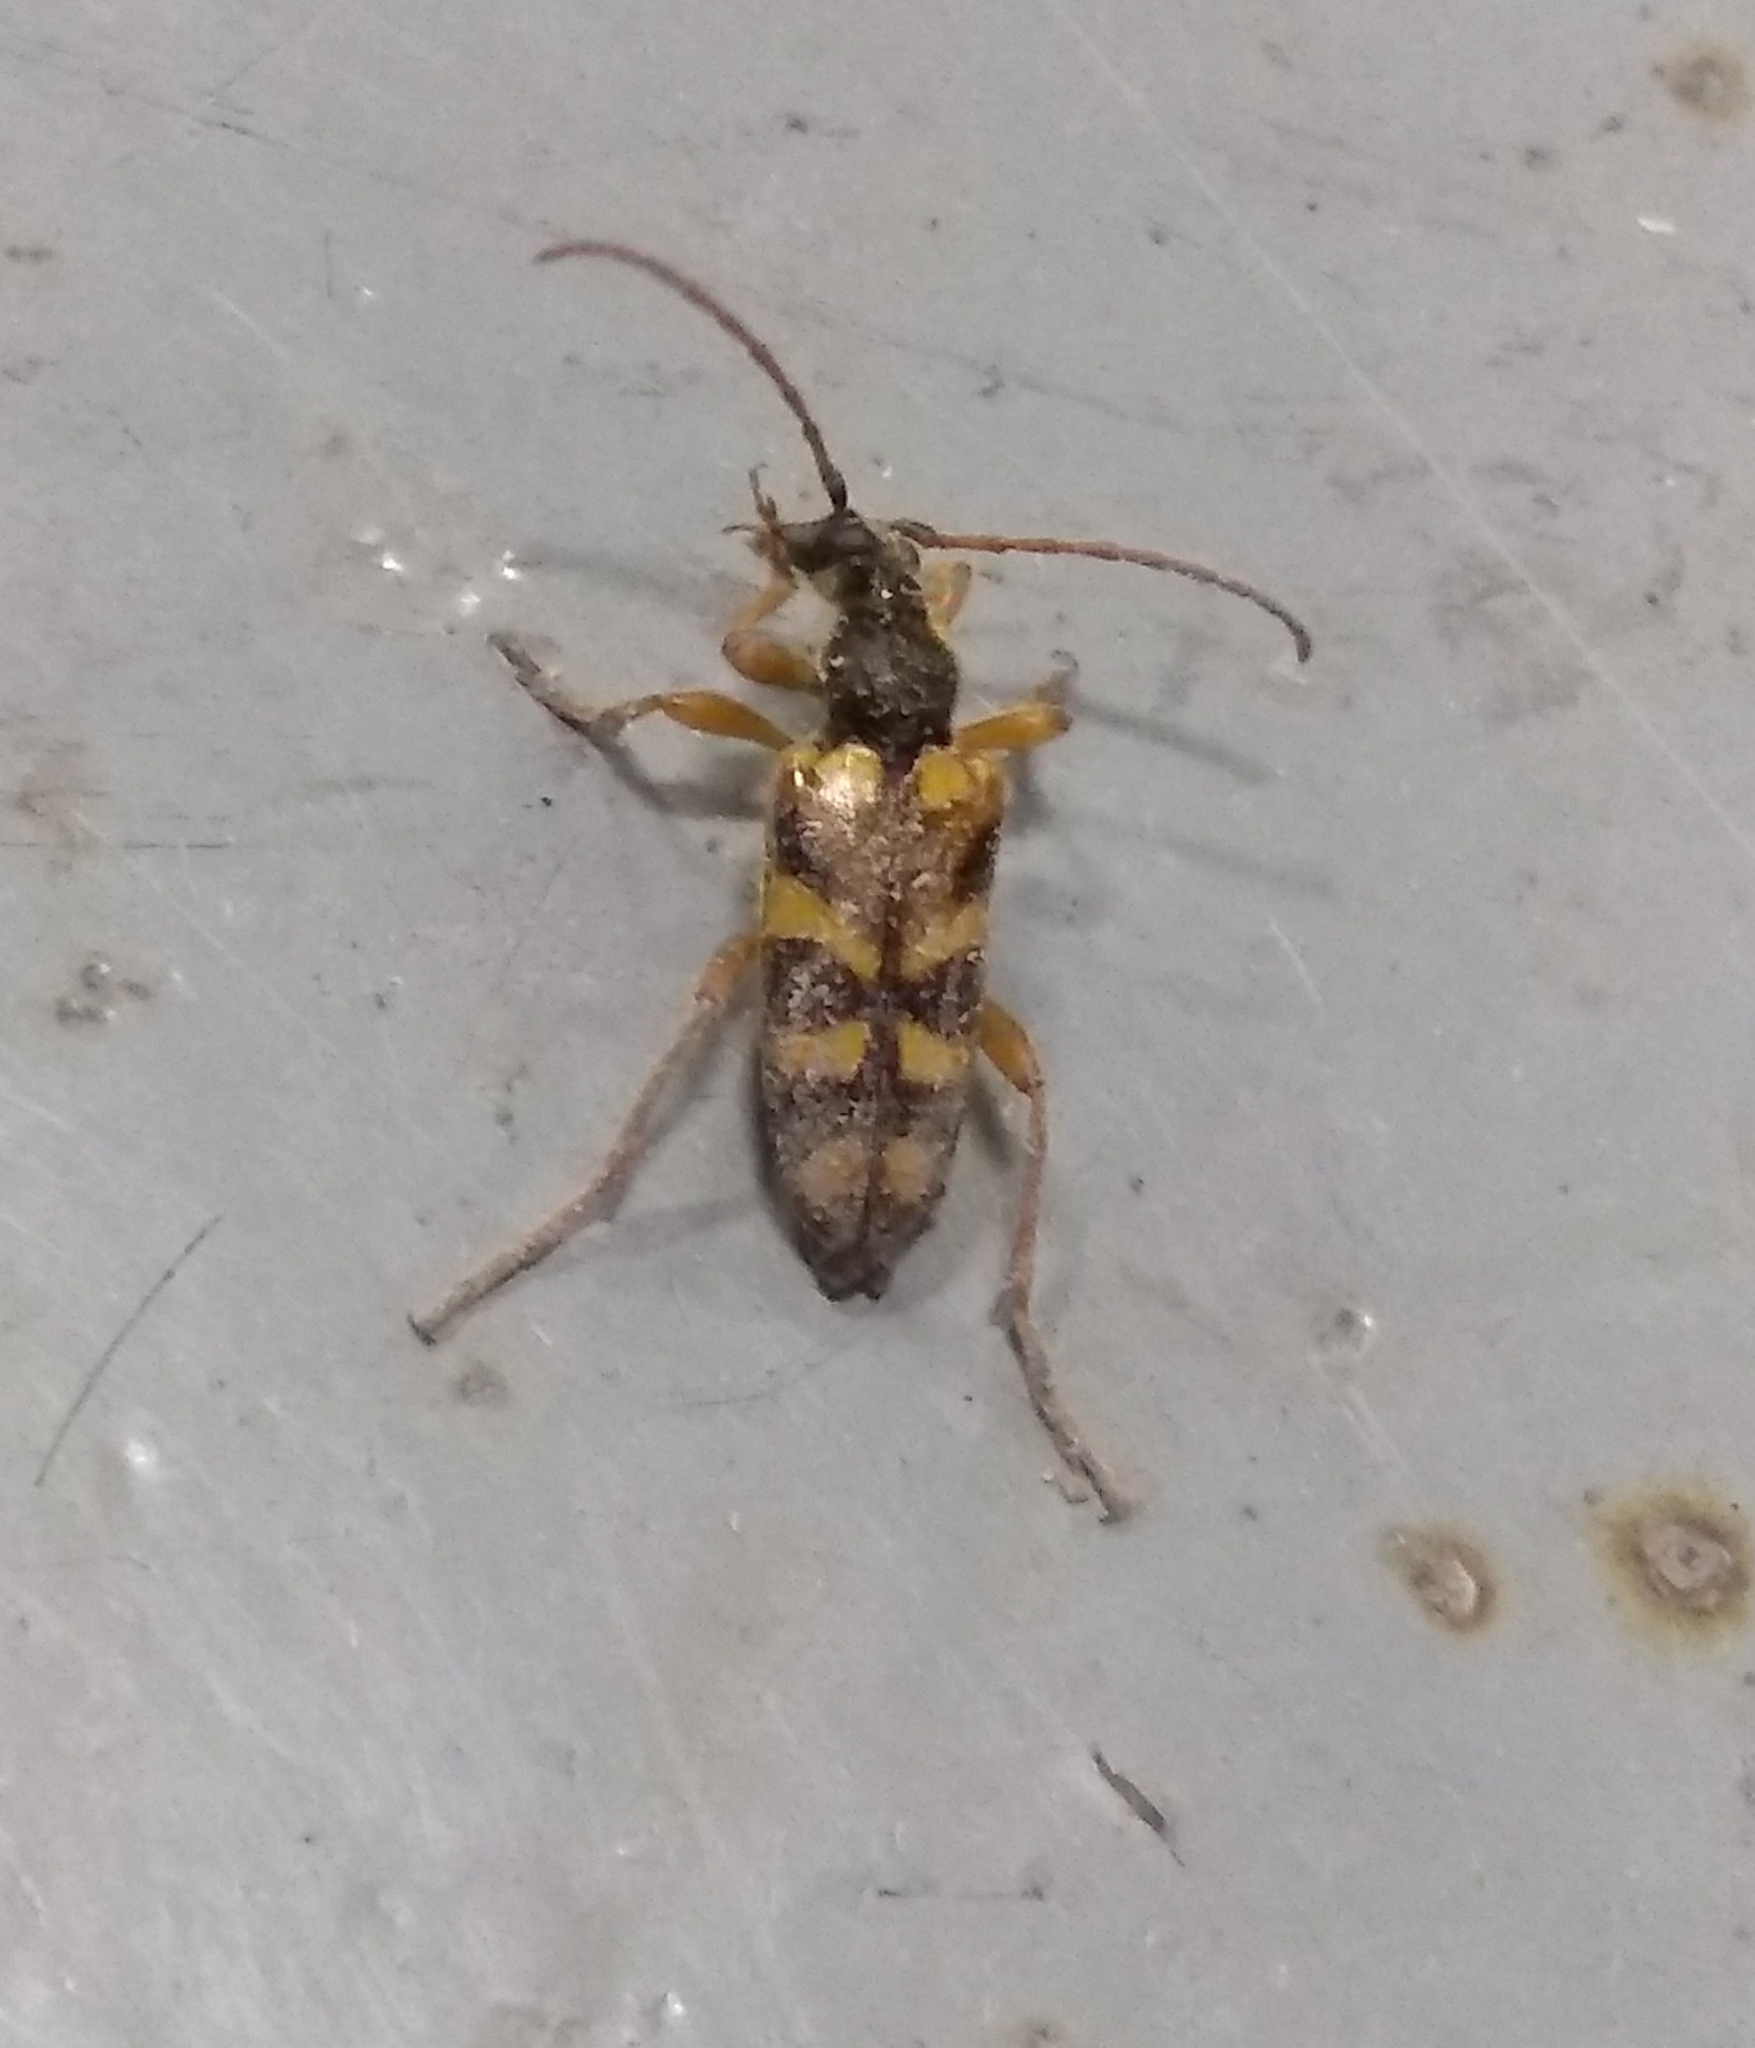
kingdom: Animalia
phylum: Arthropoda
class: Insecta
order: Coleoptera
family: Cerambycidae
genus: Xestoleptura
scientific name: Xestoleptura crassipes
